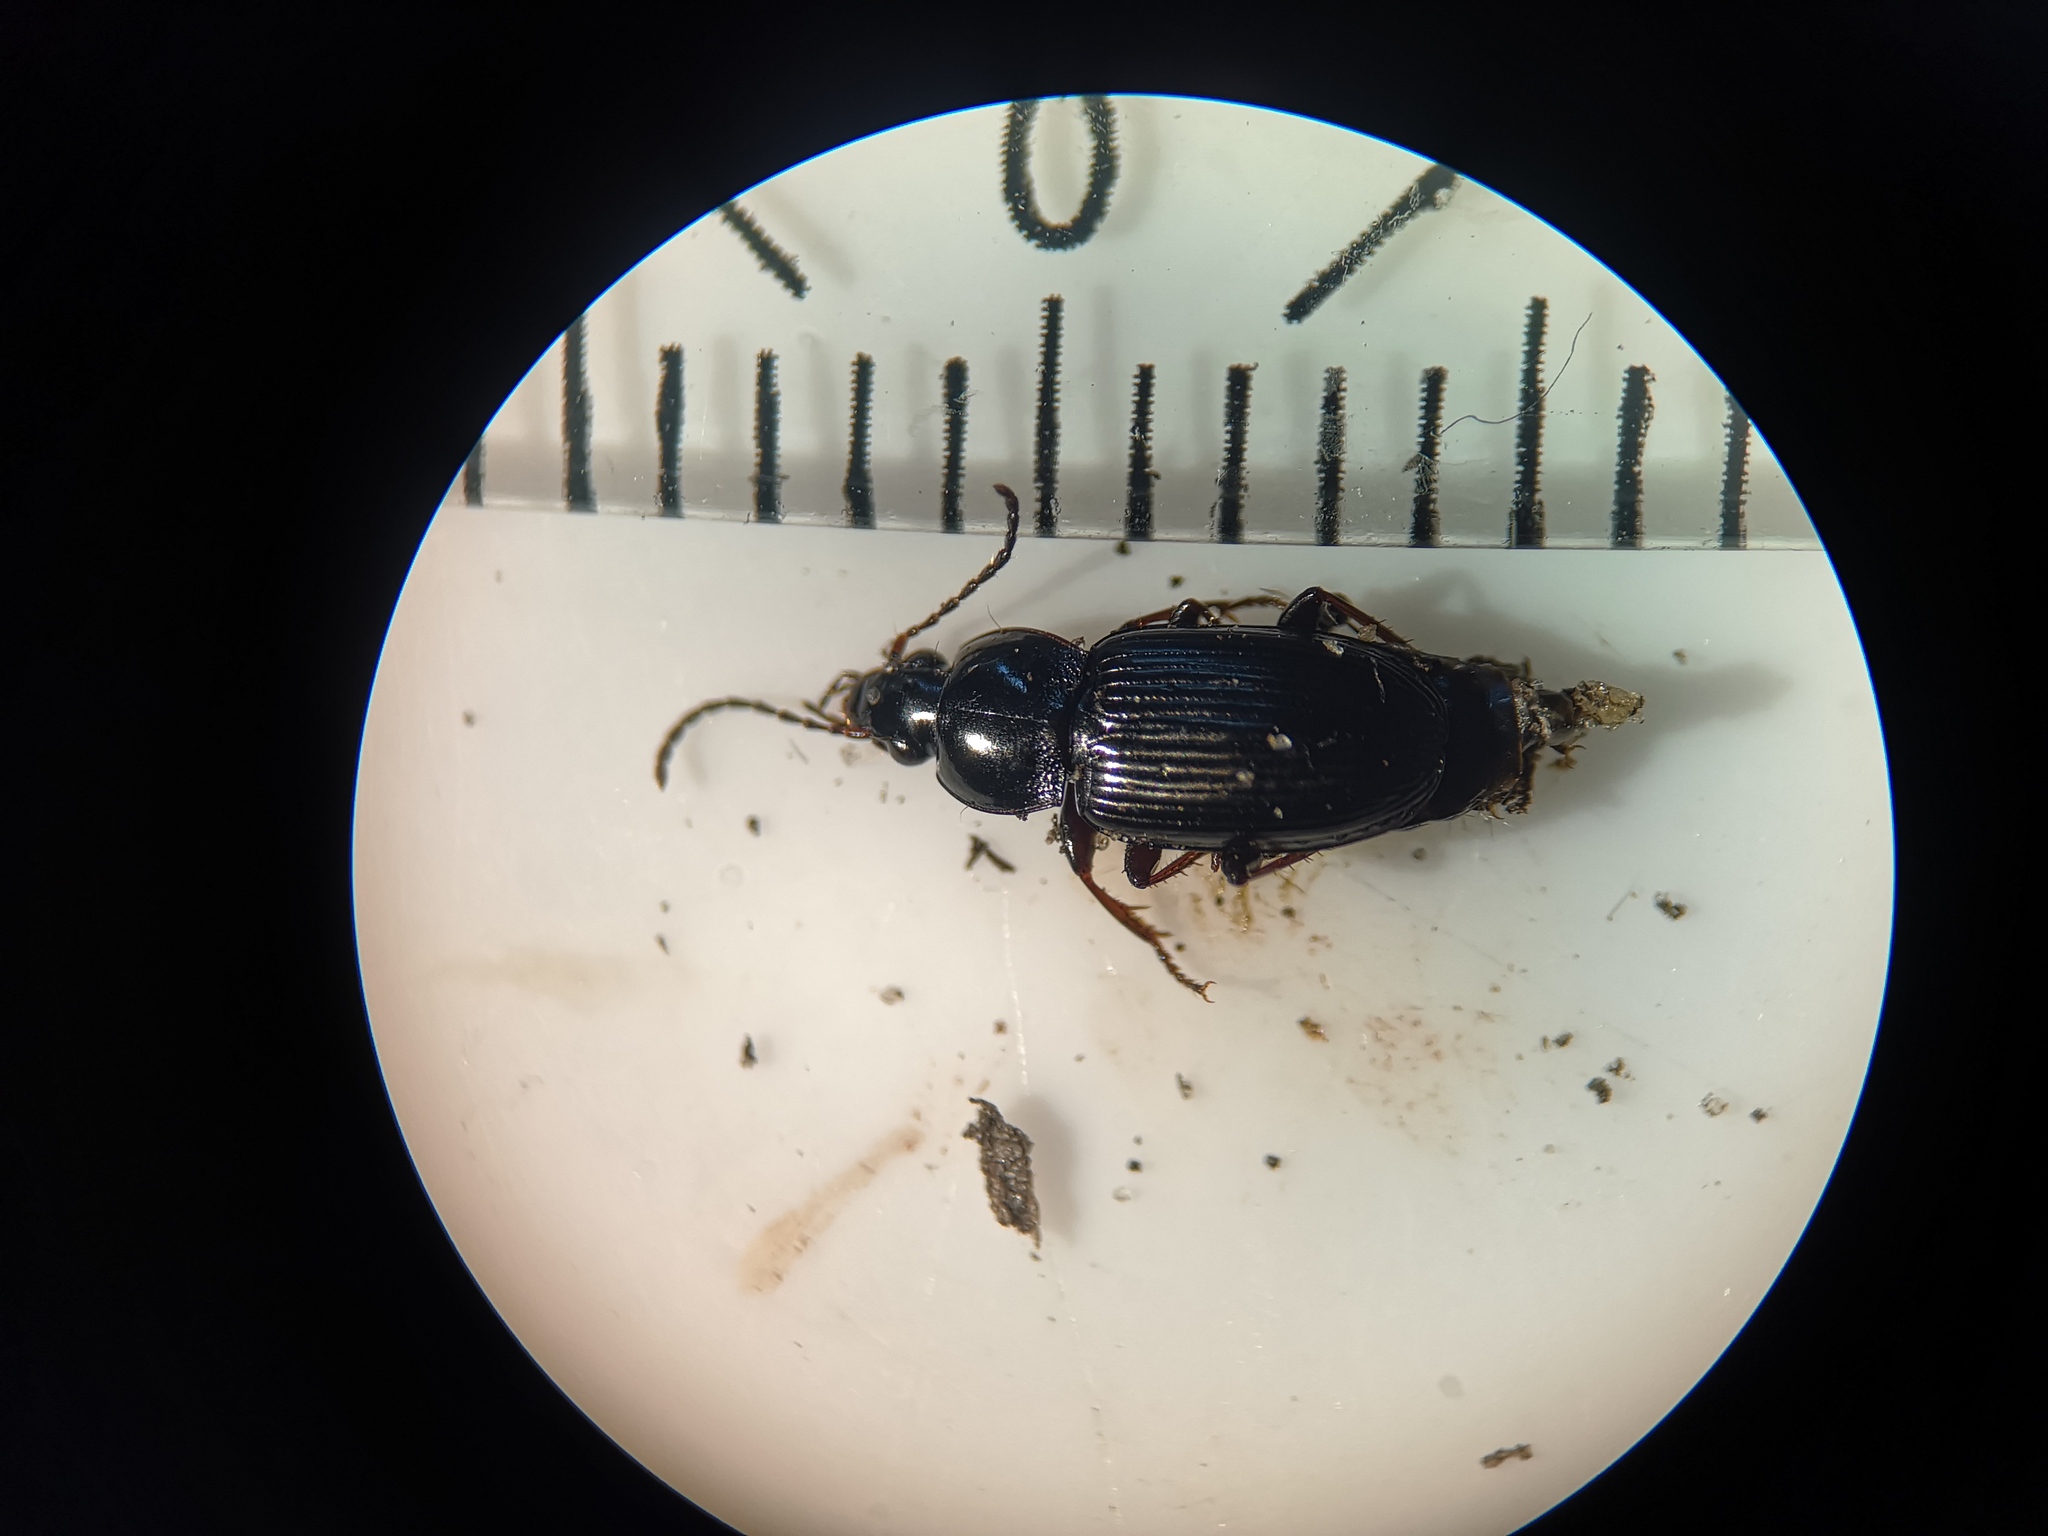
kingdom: Animalia
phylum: Arthropoda
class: Insecta
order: Coleoptera
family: Carabidae
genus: Pterostichus
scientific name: Pterostichus vernalis
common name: Spring harp ground beetle
